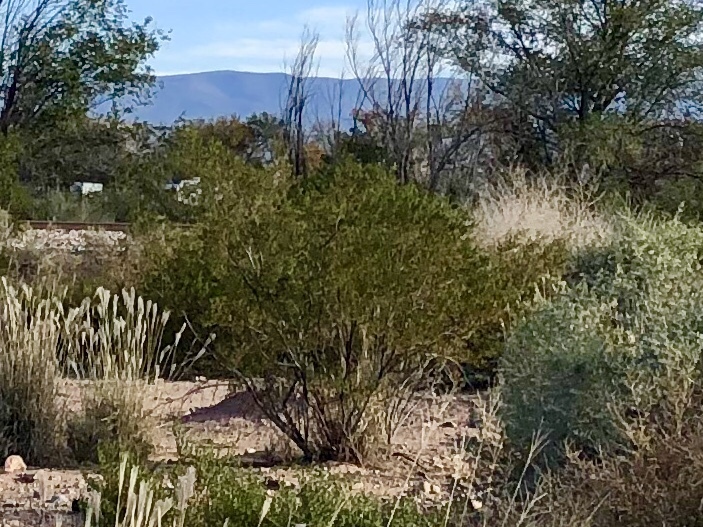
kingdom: Plantae
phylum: Tracheophyta
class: Magnoliopsida
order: Zygophyllales
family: Zygophyllaceae
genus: Larrea
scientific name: Larrea tridentata
